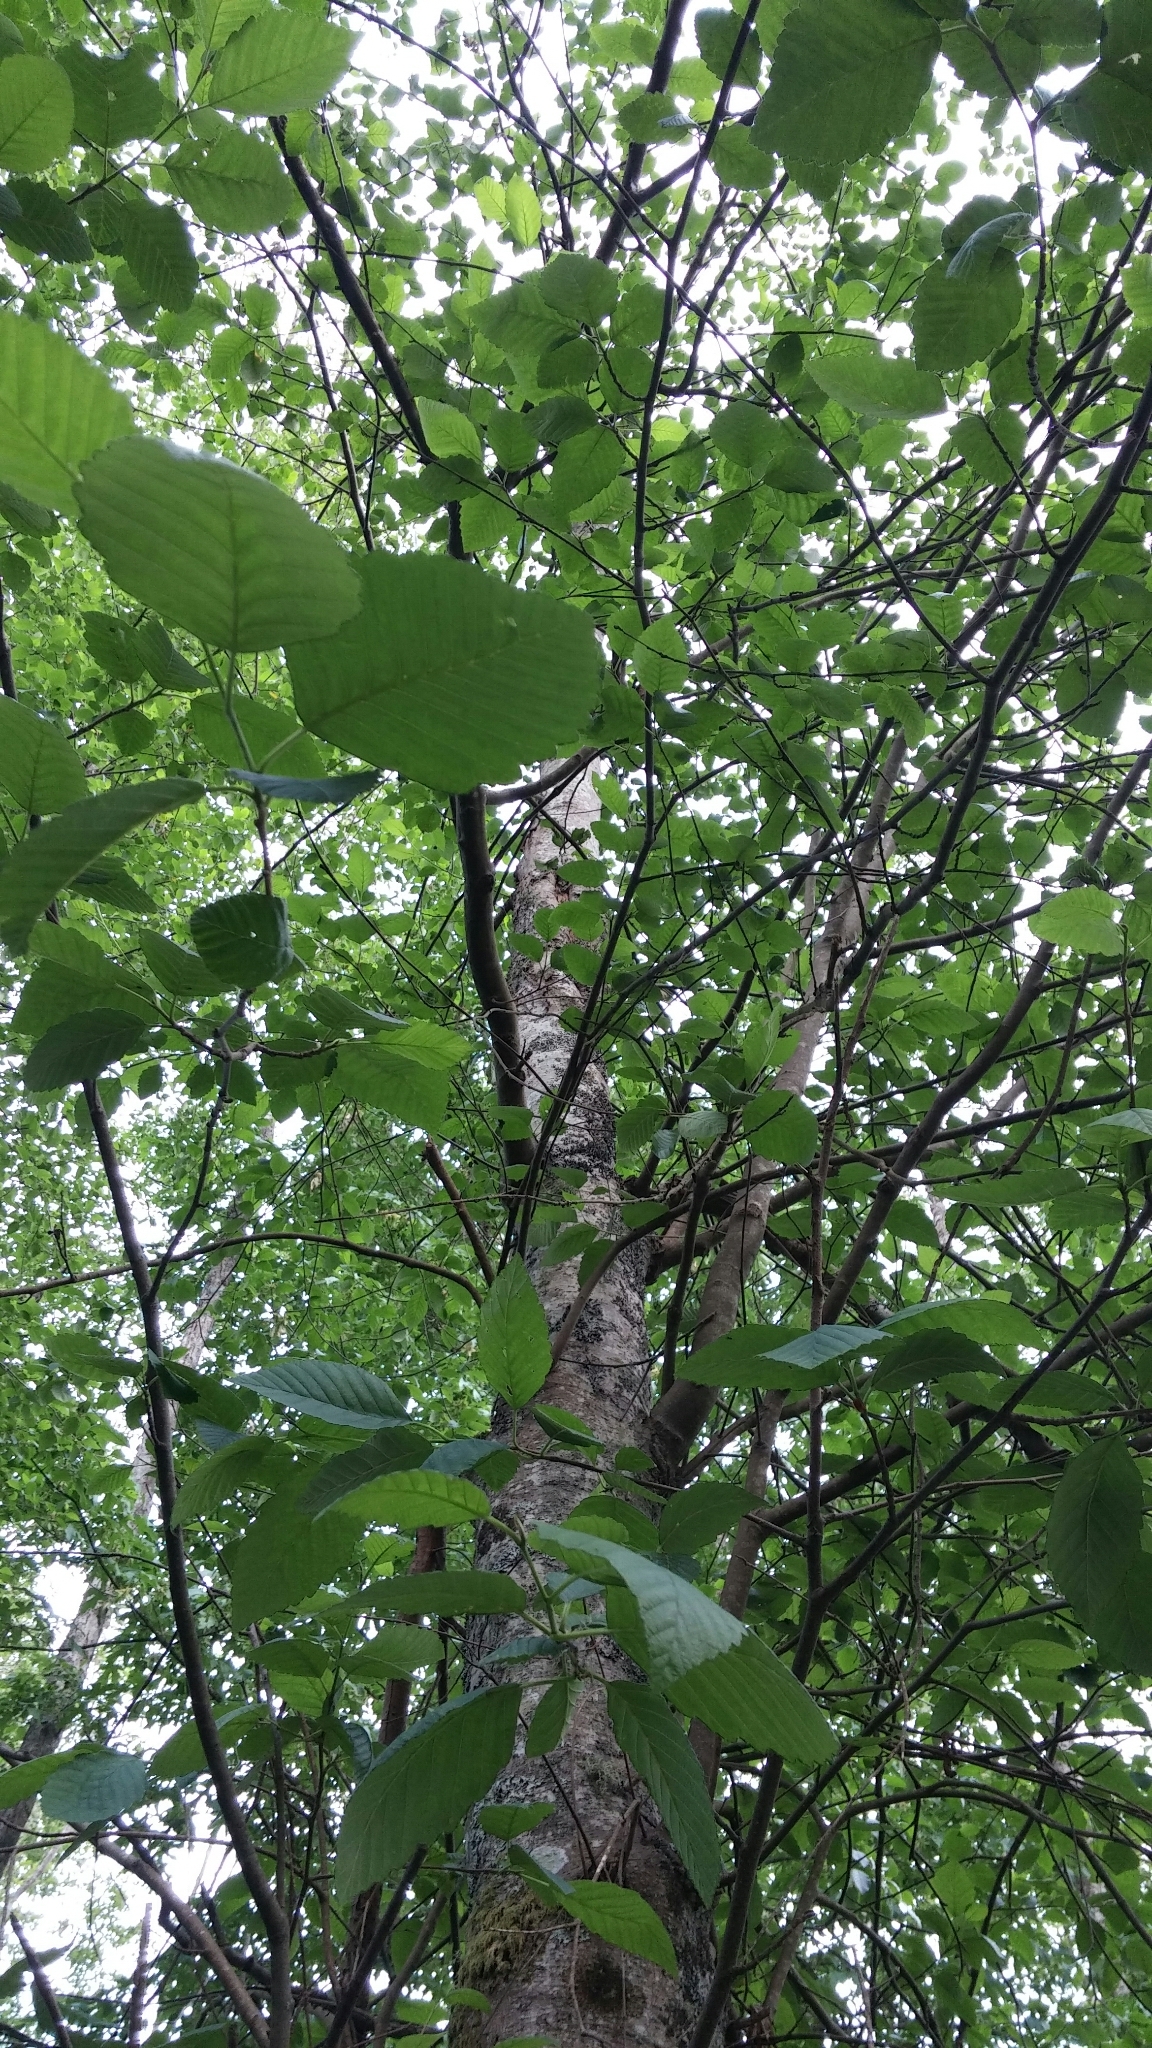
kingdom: Plantae
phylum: Tracheophyta
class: Magnoliopsida
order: Fagales
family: Betulaceae
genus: Alnus
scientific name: Alnus rubra
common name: Red alder
